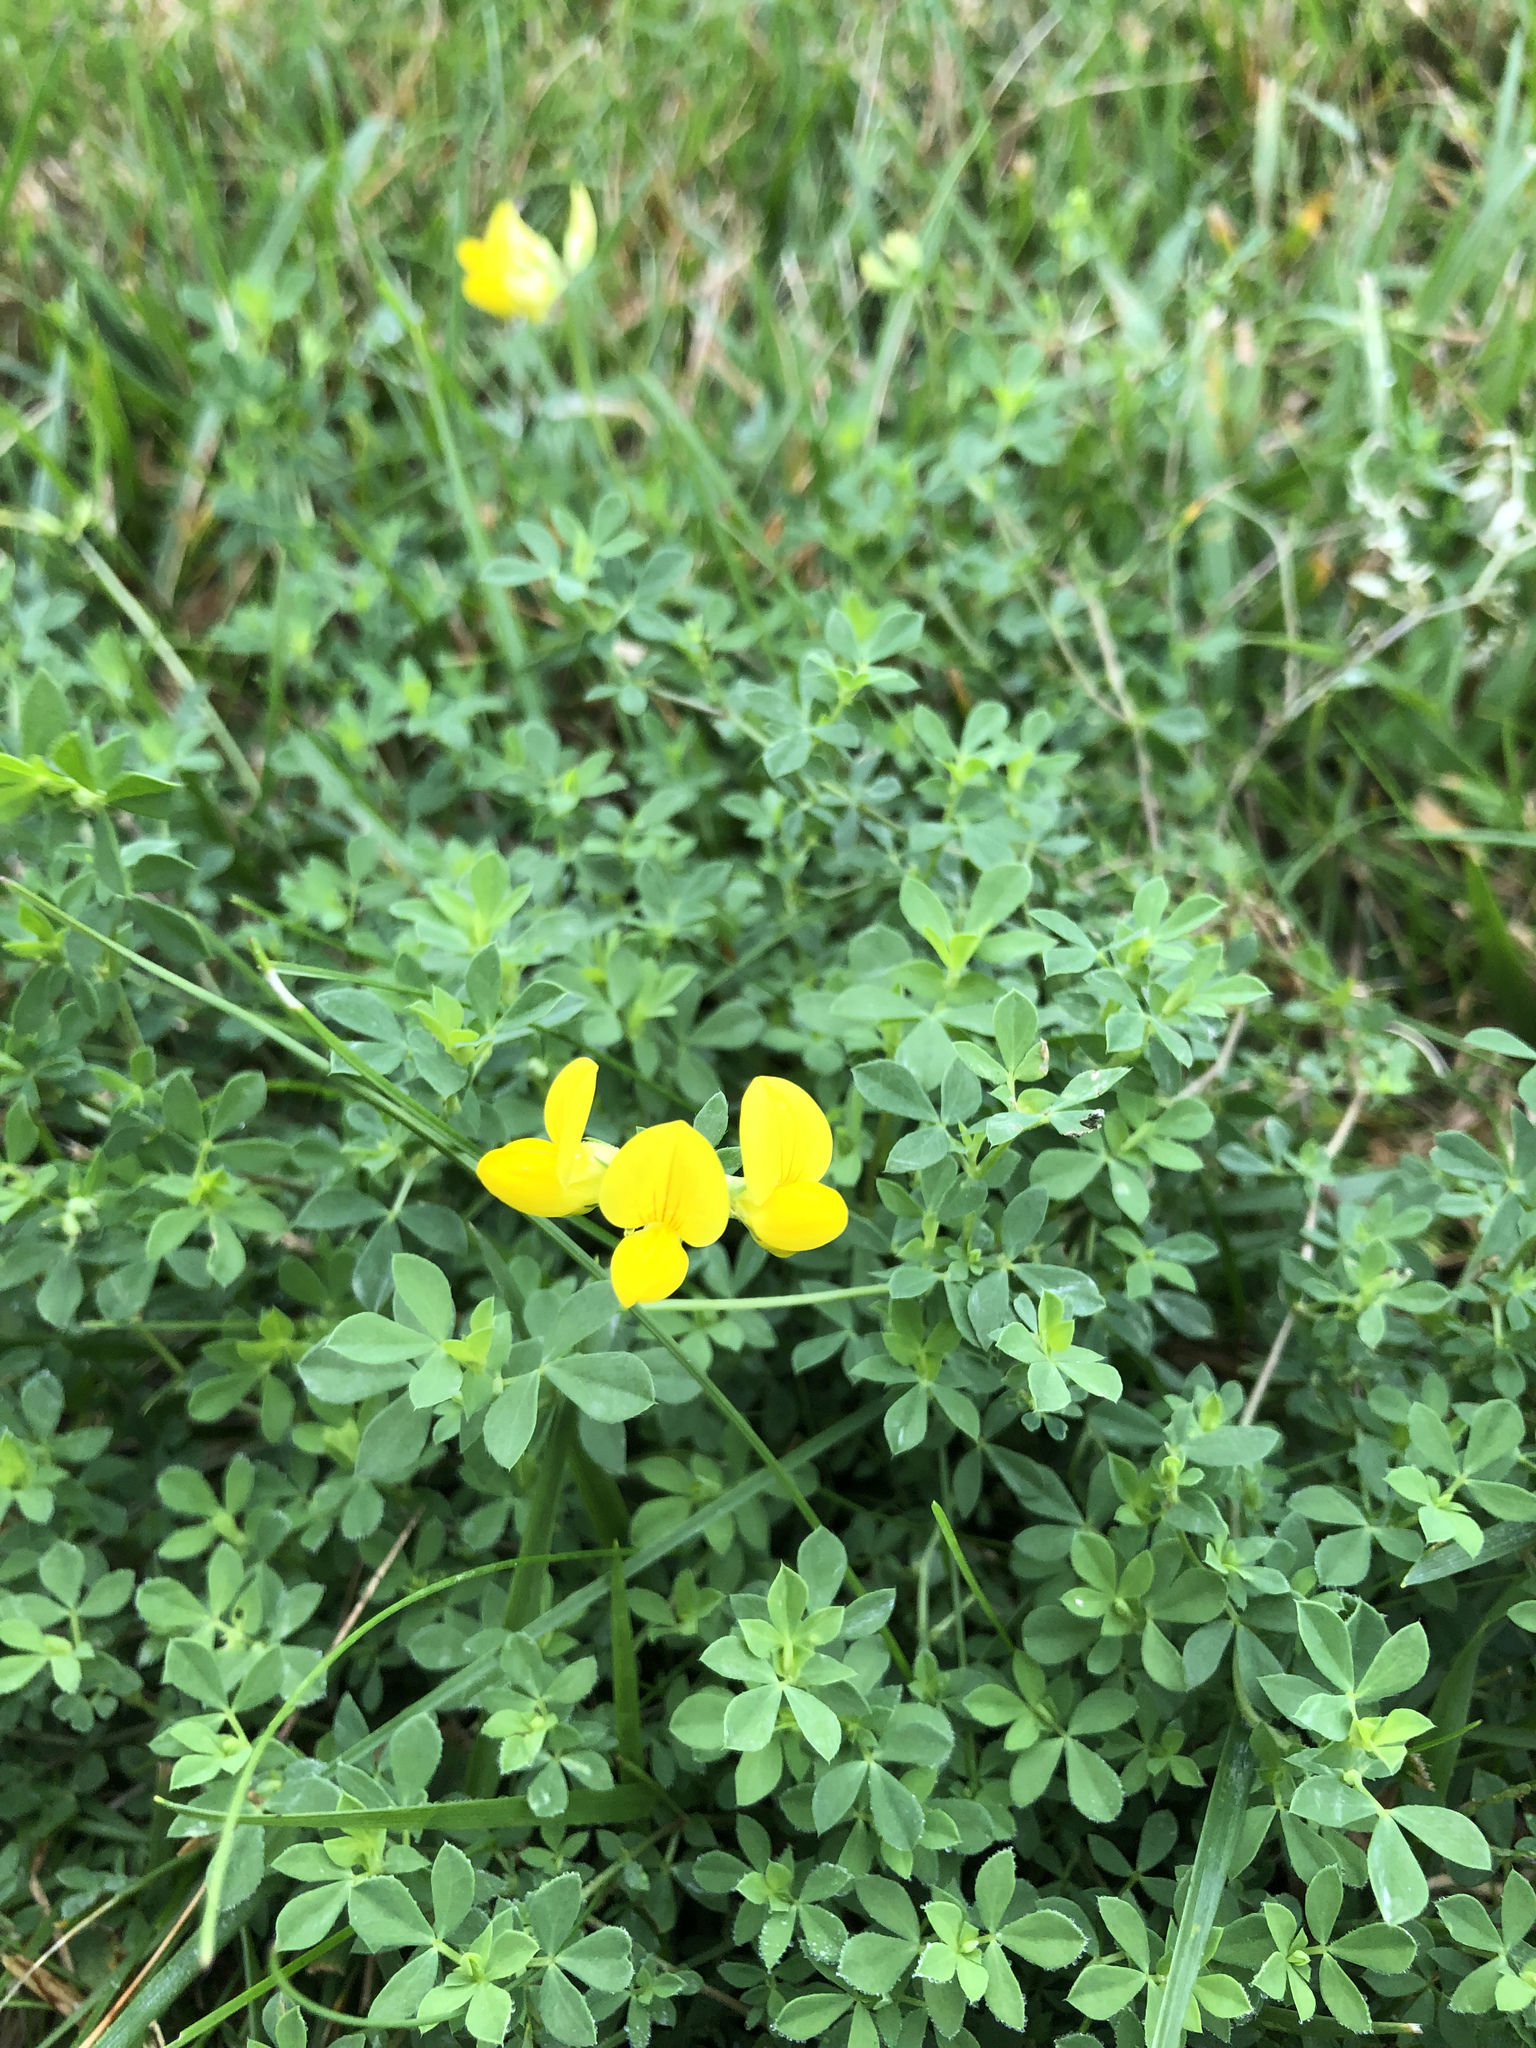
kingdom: Plantae
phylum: Tracheophyta
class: Magnoliopsida
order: Fabales
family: Fabaceae
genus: Lotus
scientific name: Lotus corniculatus
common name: Common bird's-foot-trefoil
